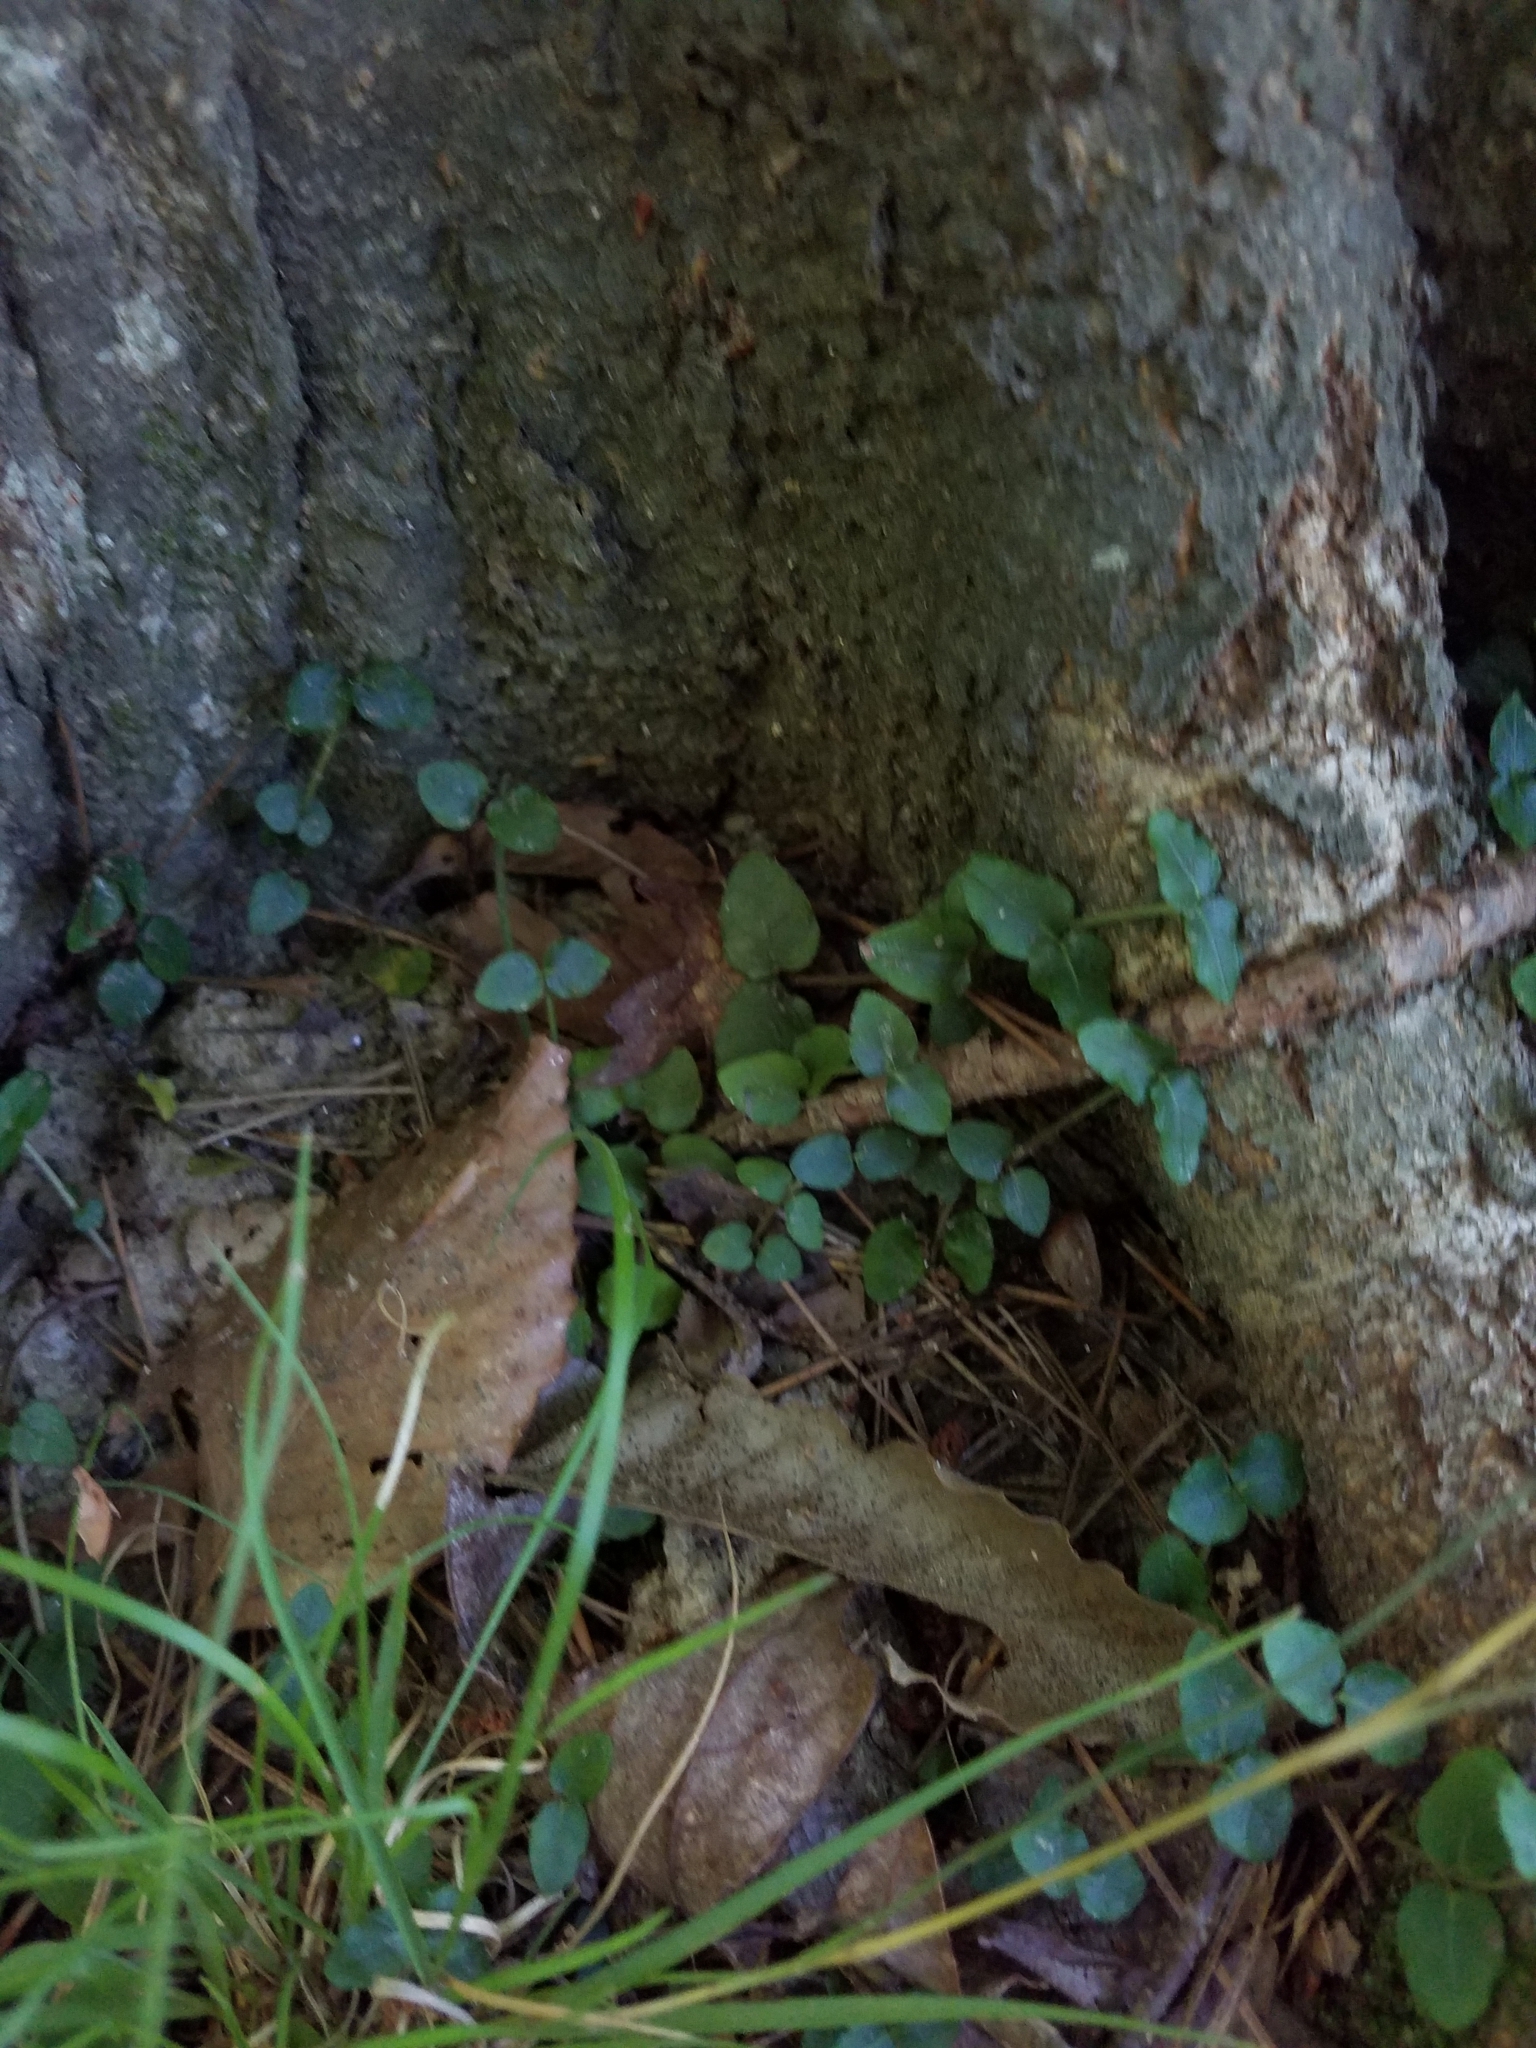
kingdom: Plantae
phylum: Tracheophyta
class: Magnoliopsida
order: Gentianales
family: Rubiaceae
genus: Mitchella
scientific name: Mitchella repens
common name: Partridge-berry
